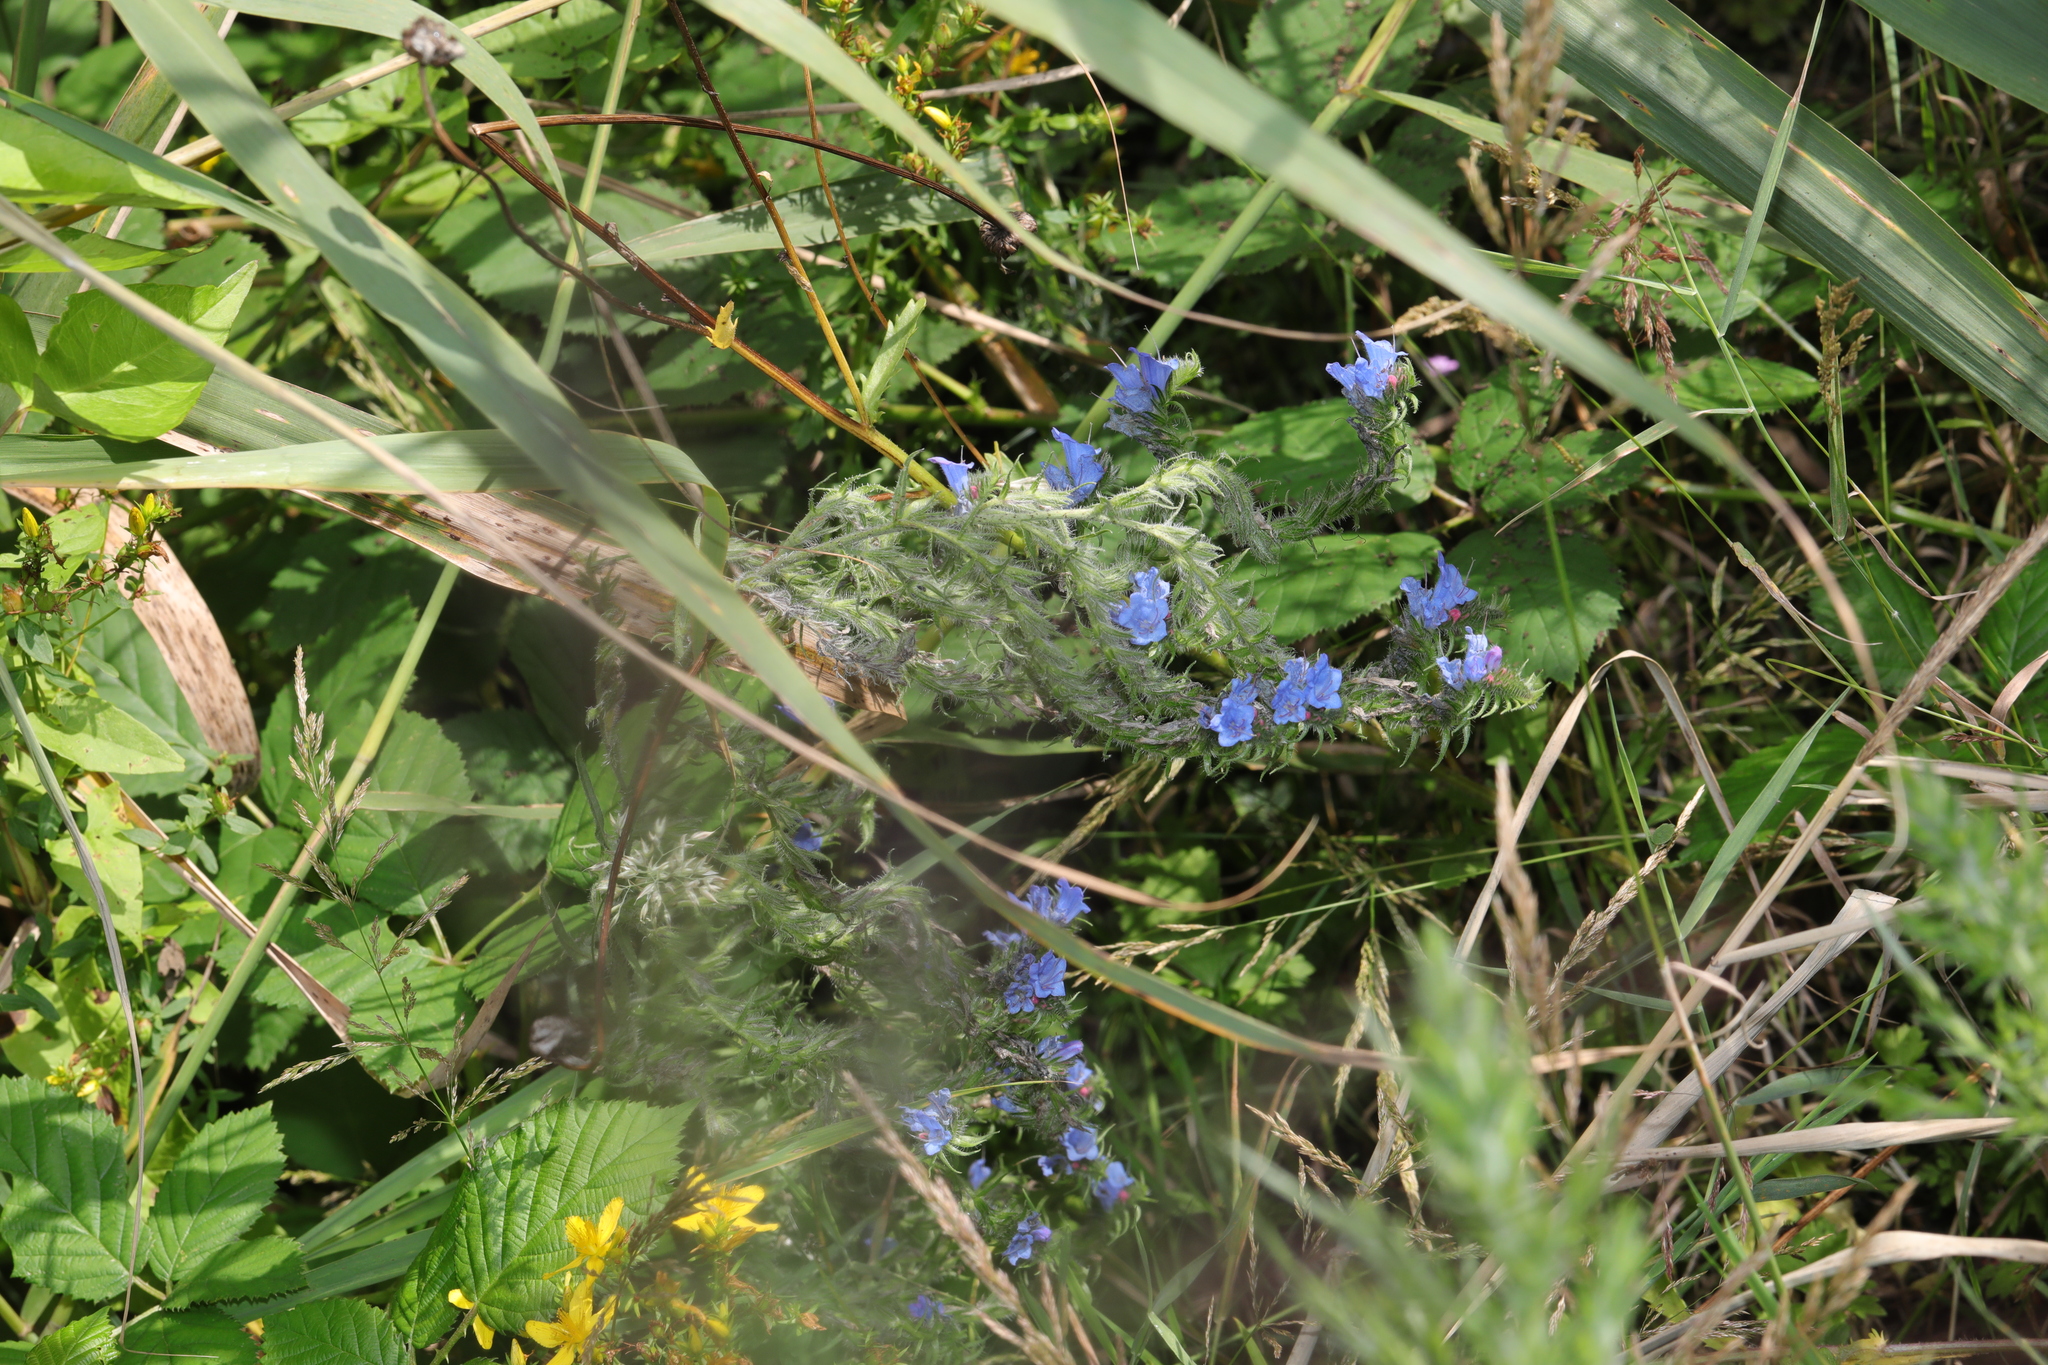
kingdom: Plantae
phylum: Tracheophyta
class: Magnoliopsida
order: Boraginales
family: Boraginaceae
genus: Echium
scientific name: Echium vulgare
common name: Common viper's bugloss
